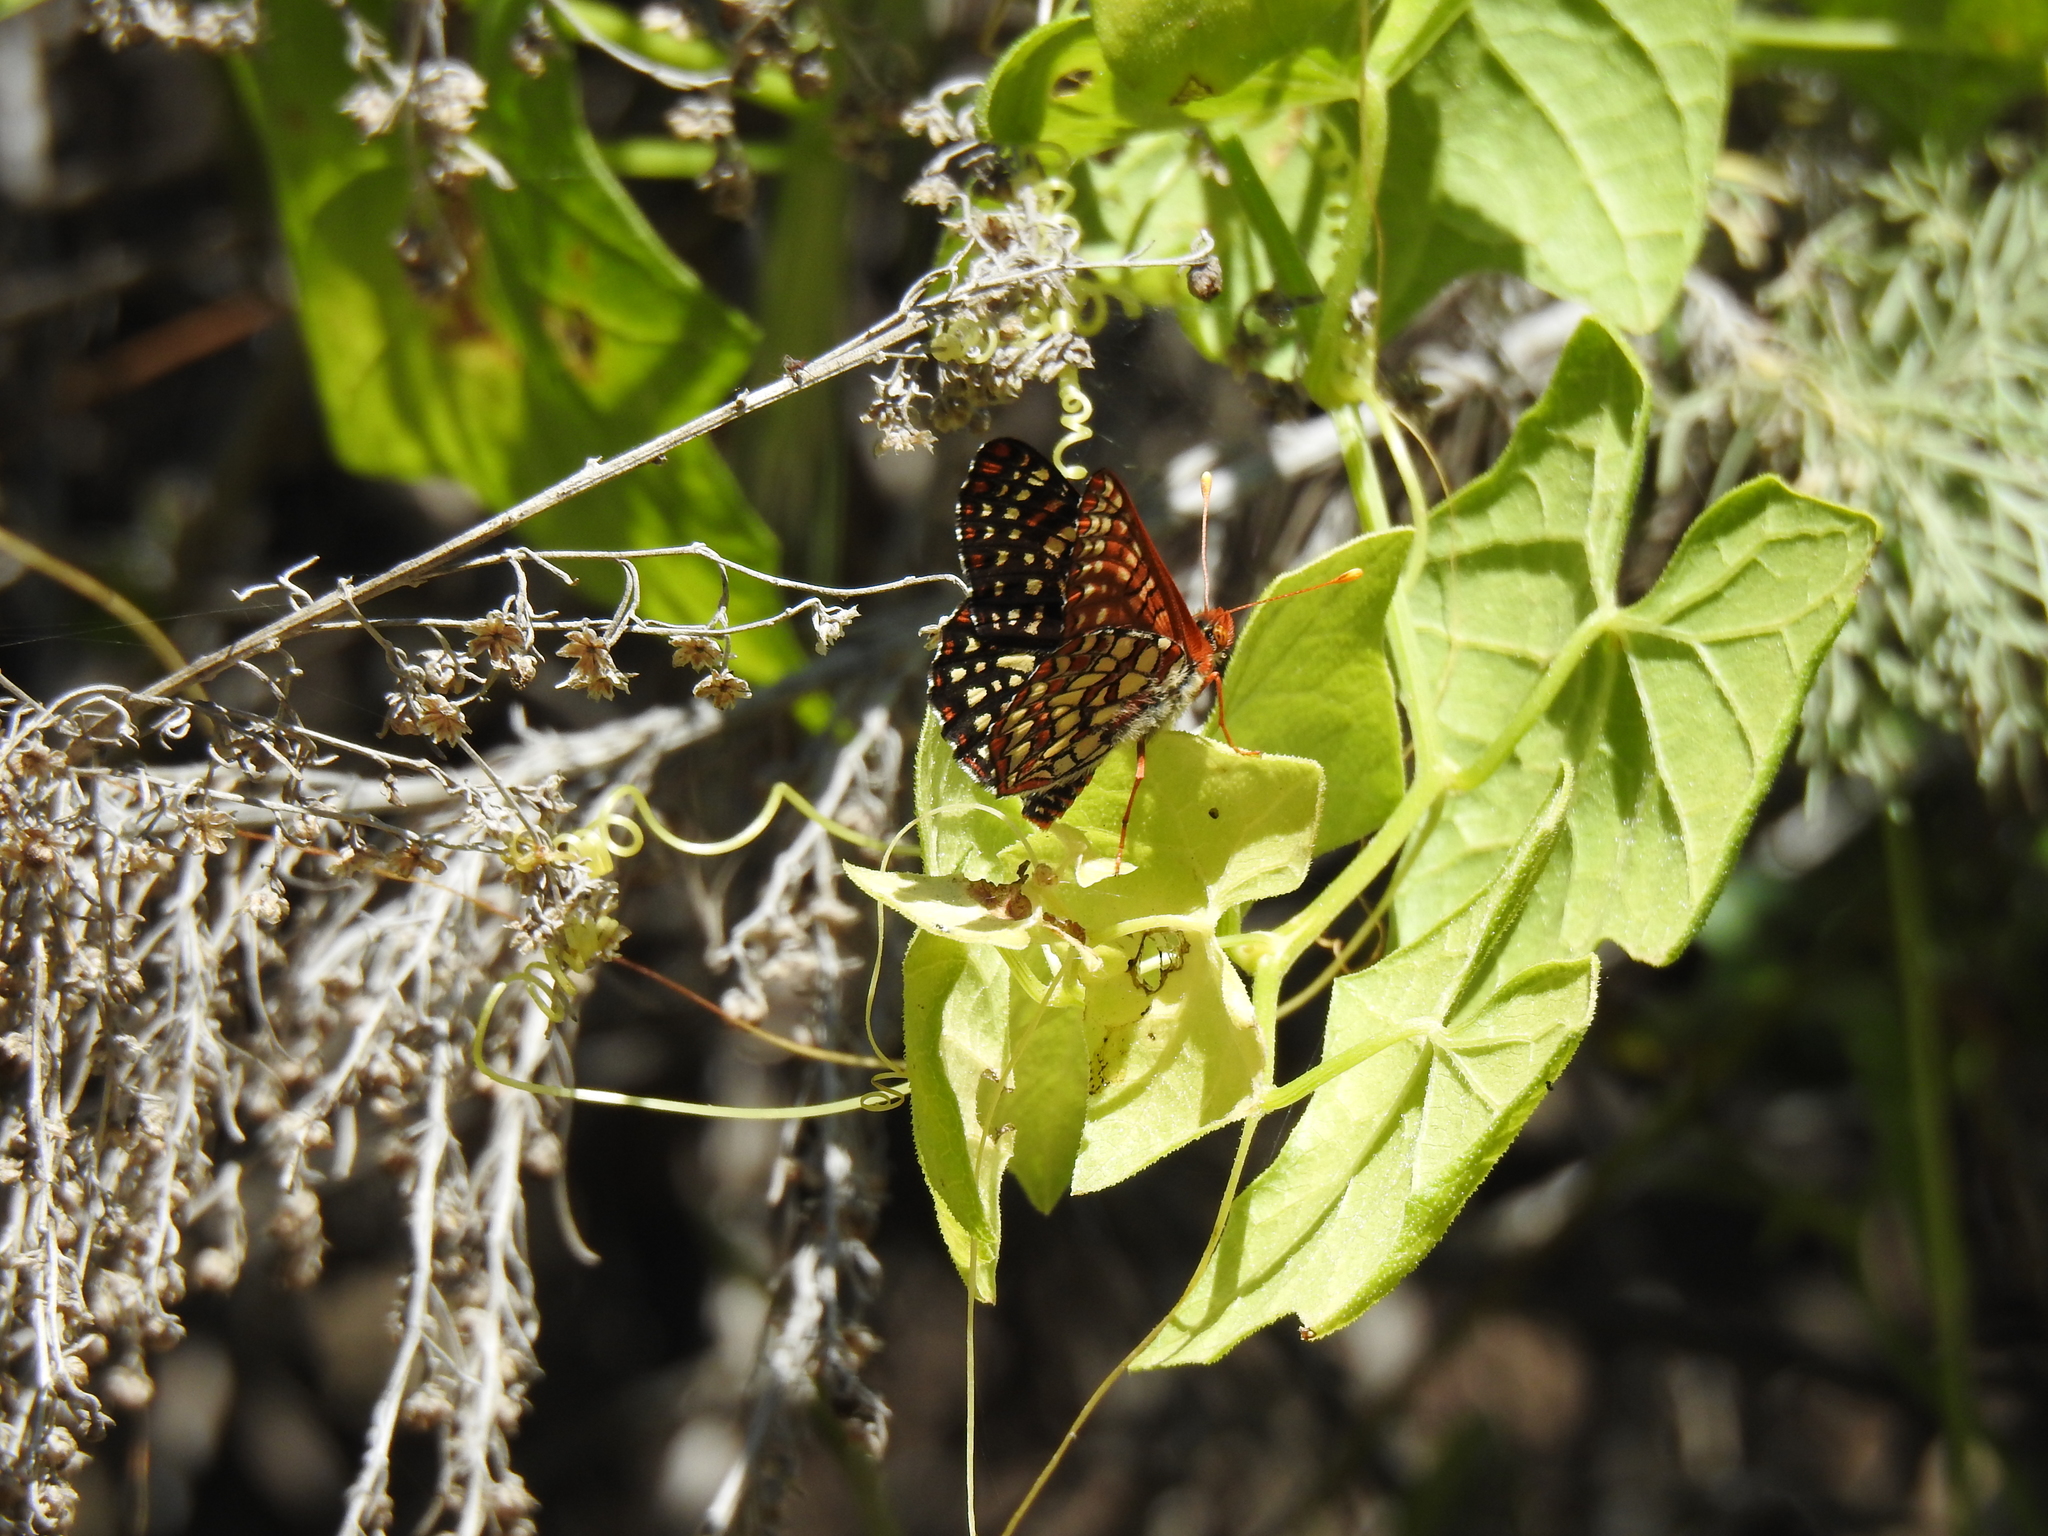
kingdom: Animalia
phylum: Arthropoda
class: Insecta
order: Lepidoptera
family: Nymphalidae
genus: Occidryas
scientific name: Occidryas chalcedona
